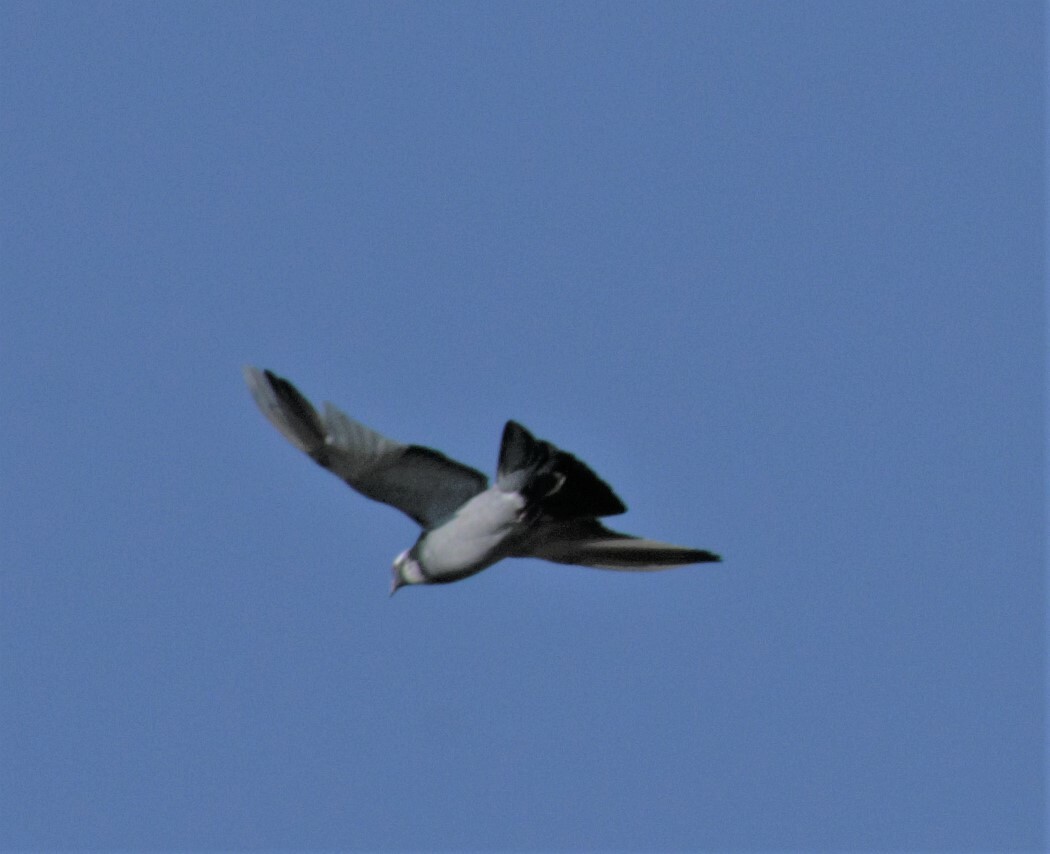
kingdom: Animalia
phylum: Chordata
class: Aves
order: Columbiformes
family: Columbidae
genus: Columba
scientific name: Columba livia
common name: Rock pigeon
